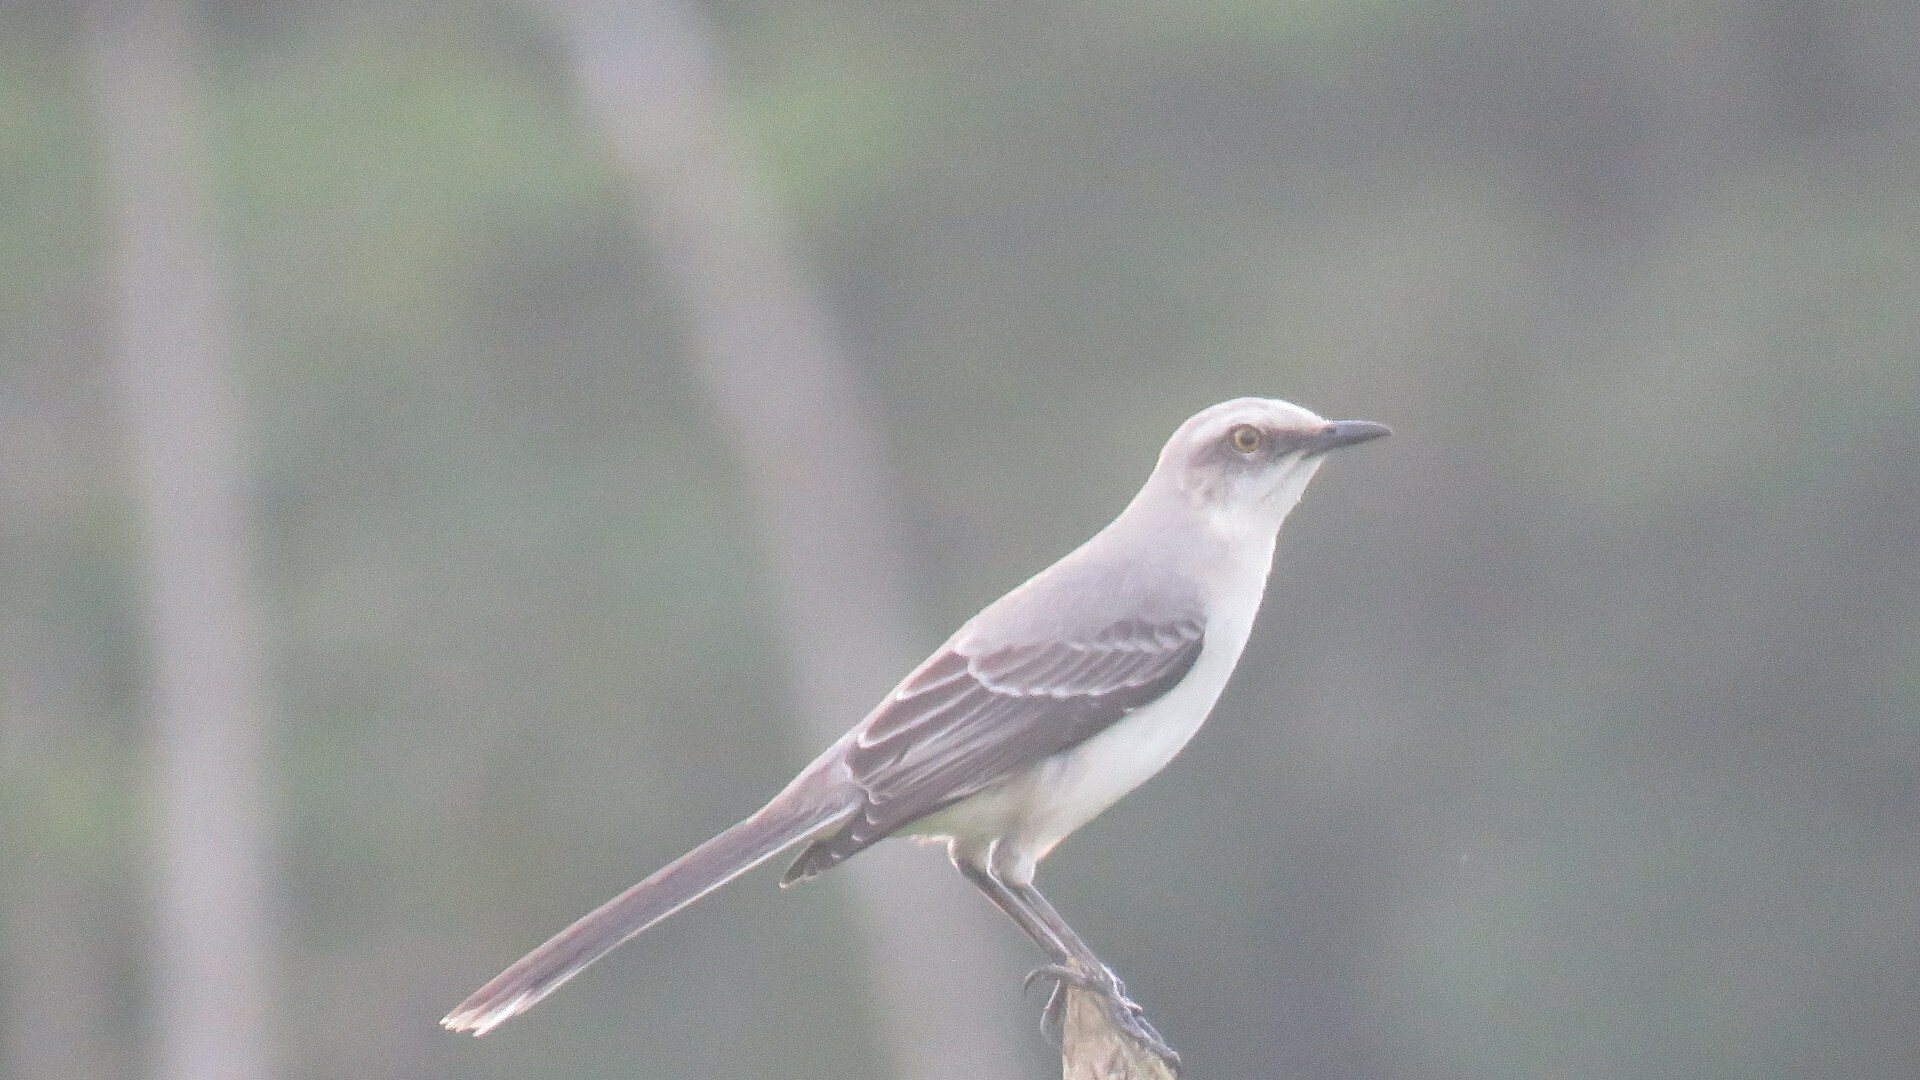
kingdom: Animalia
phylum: Chordata
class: Aves
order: Passeriformes
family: Mimidae
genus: Mimus
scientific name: Mimus gilvus
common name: Tropical mockingbird
